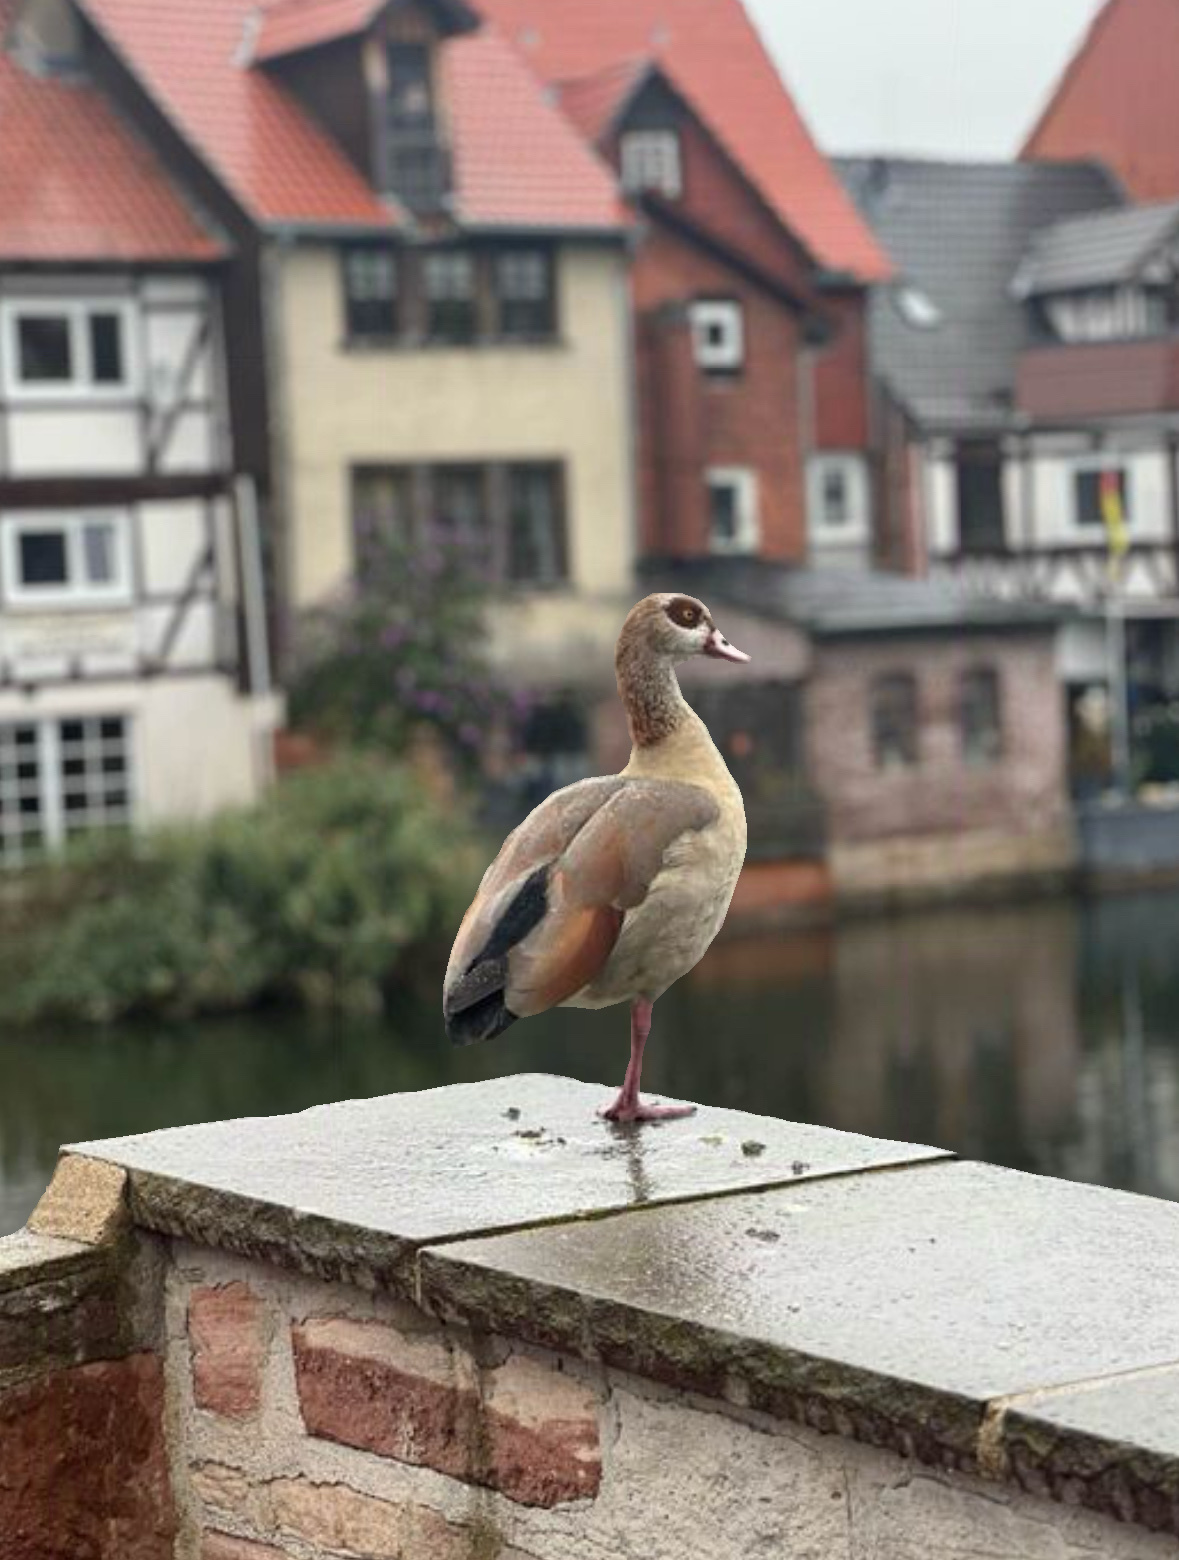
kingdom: Animalia
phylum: Chordata
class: Aves
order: Anseriformes
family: Anatidae
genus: Alopochen
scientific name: Alopochen aegyptiaca
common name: Egyptian goose
